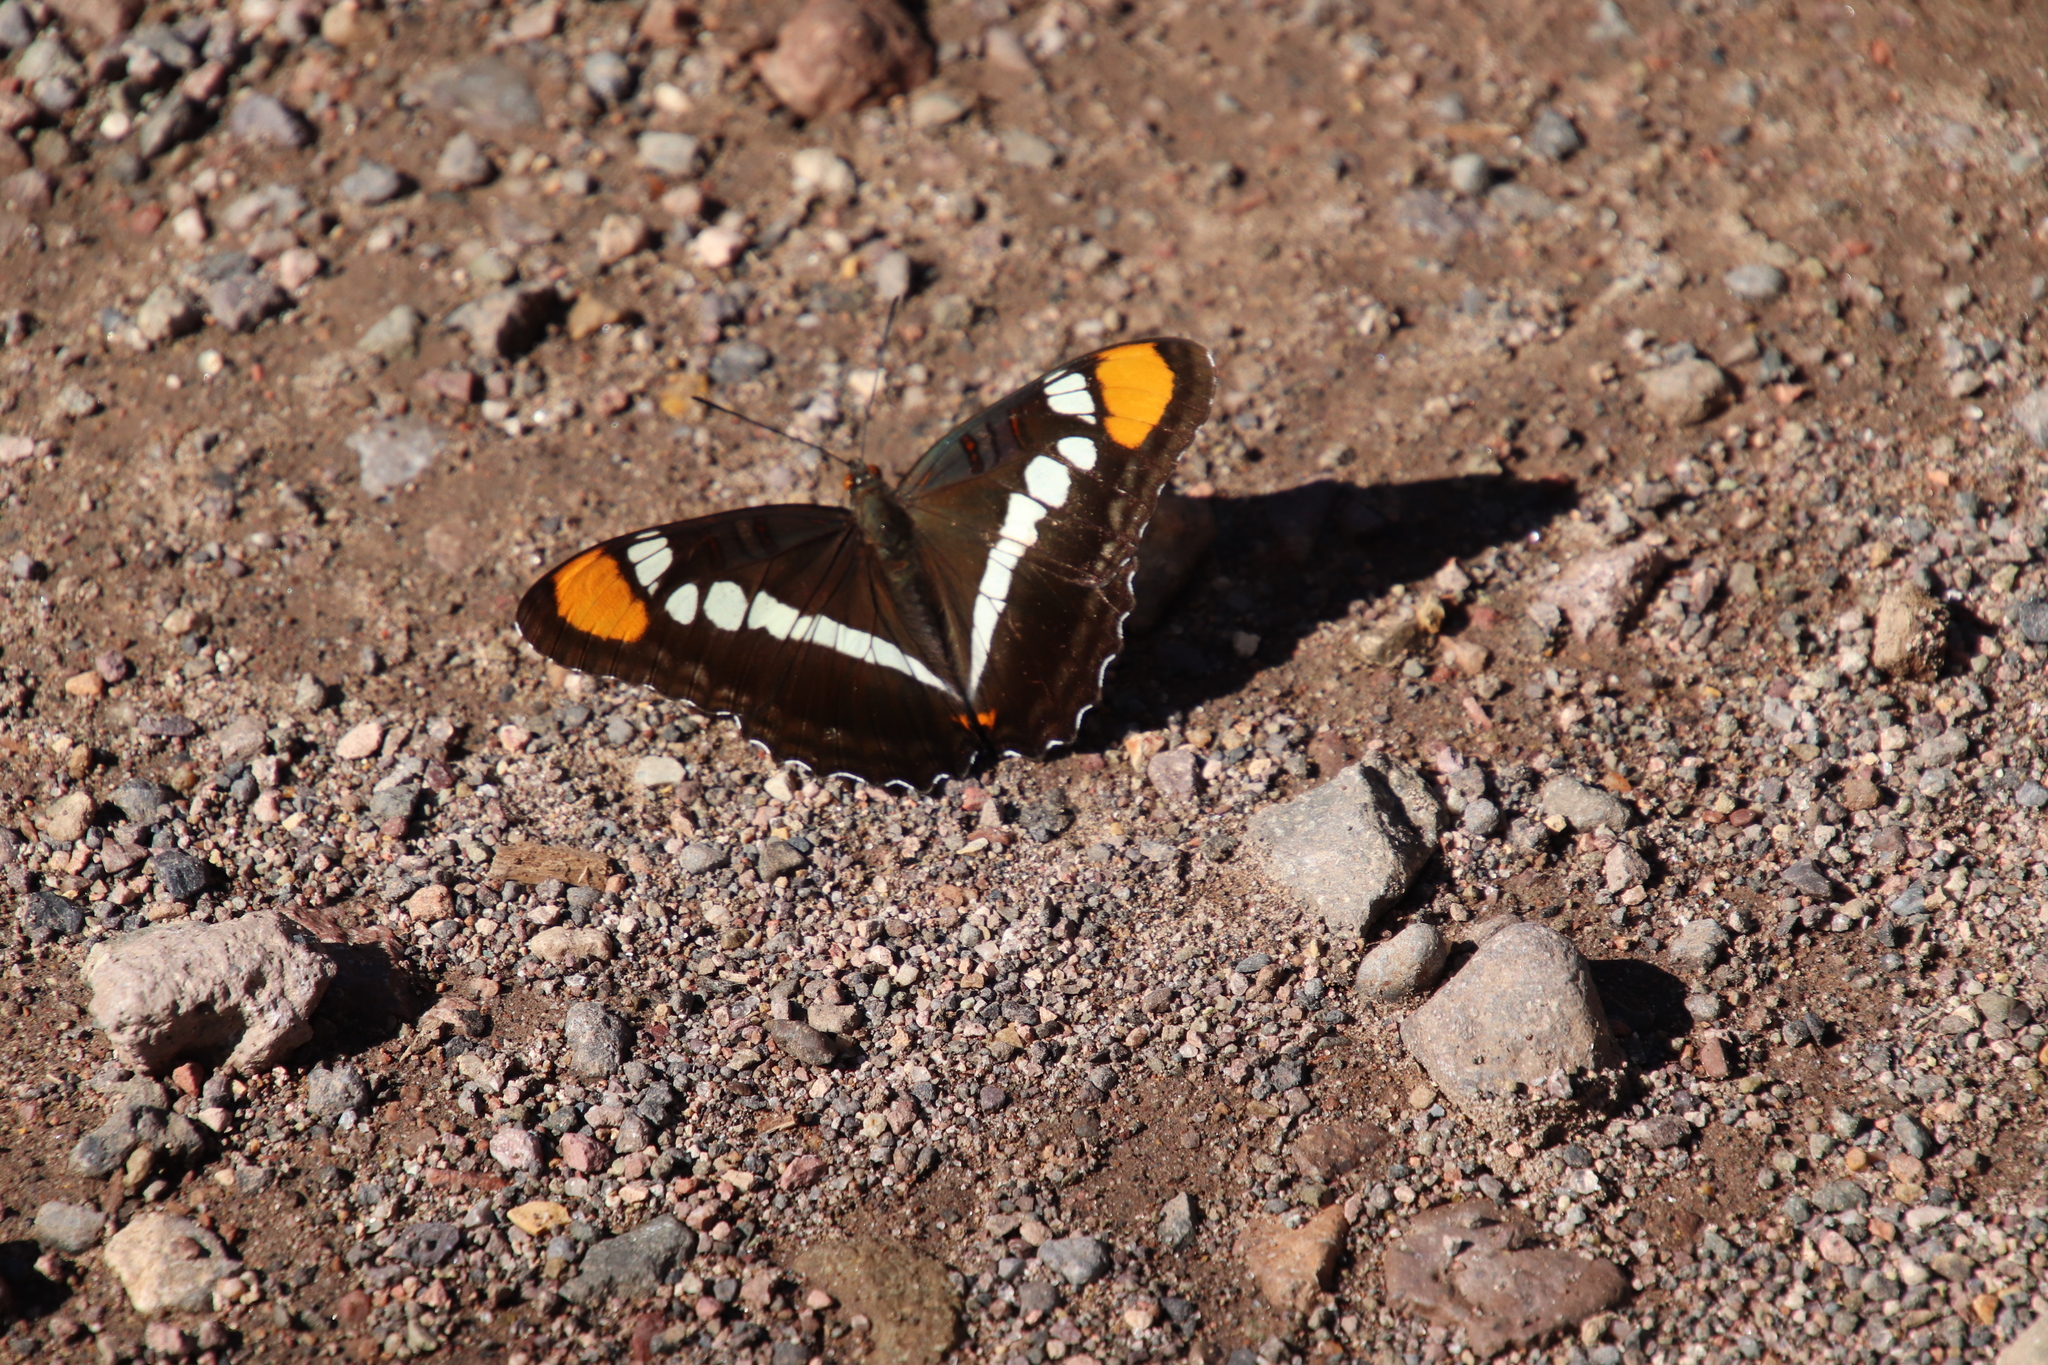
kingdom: Animalia
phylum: Arthropoda
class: Insecta
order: Lepidoptera
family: Nymphalidae
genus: Limenitis
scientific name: Limenitis bredowii
